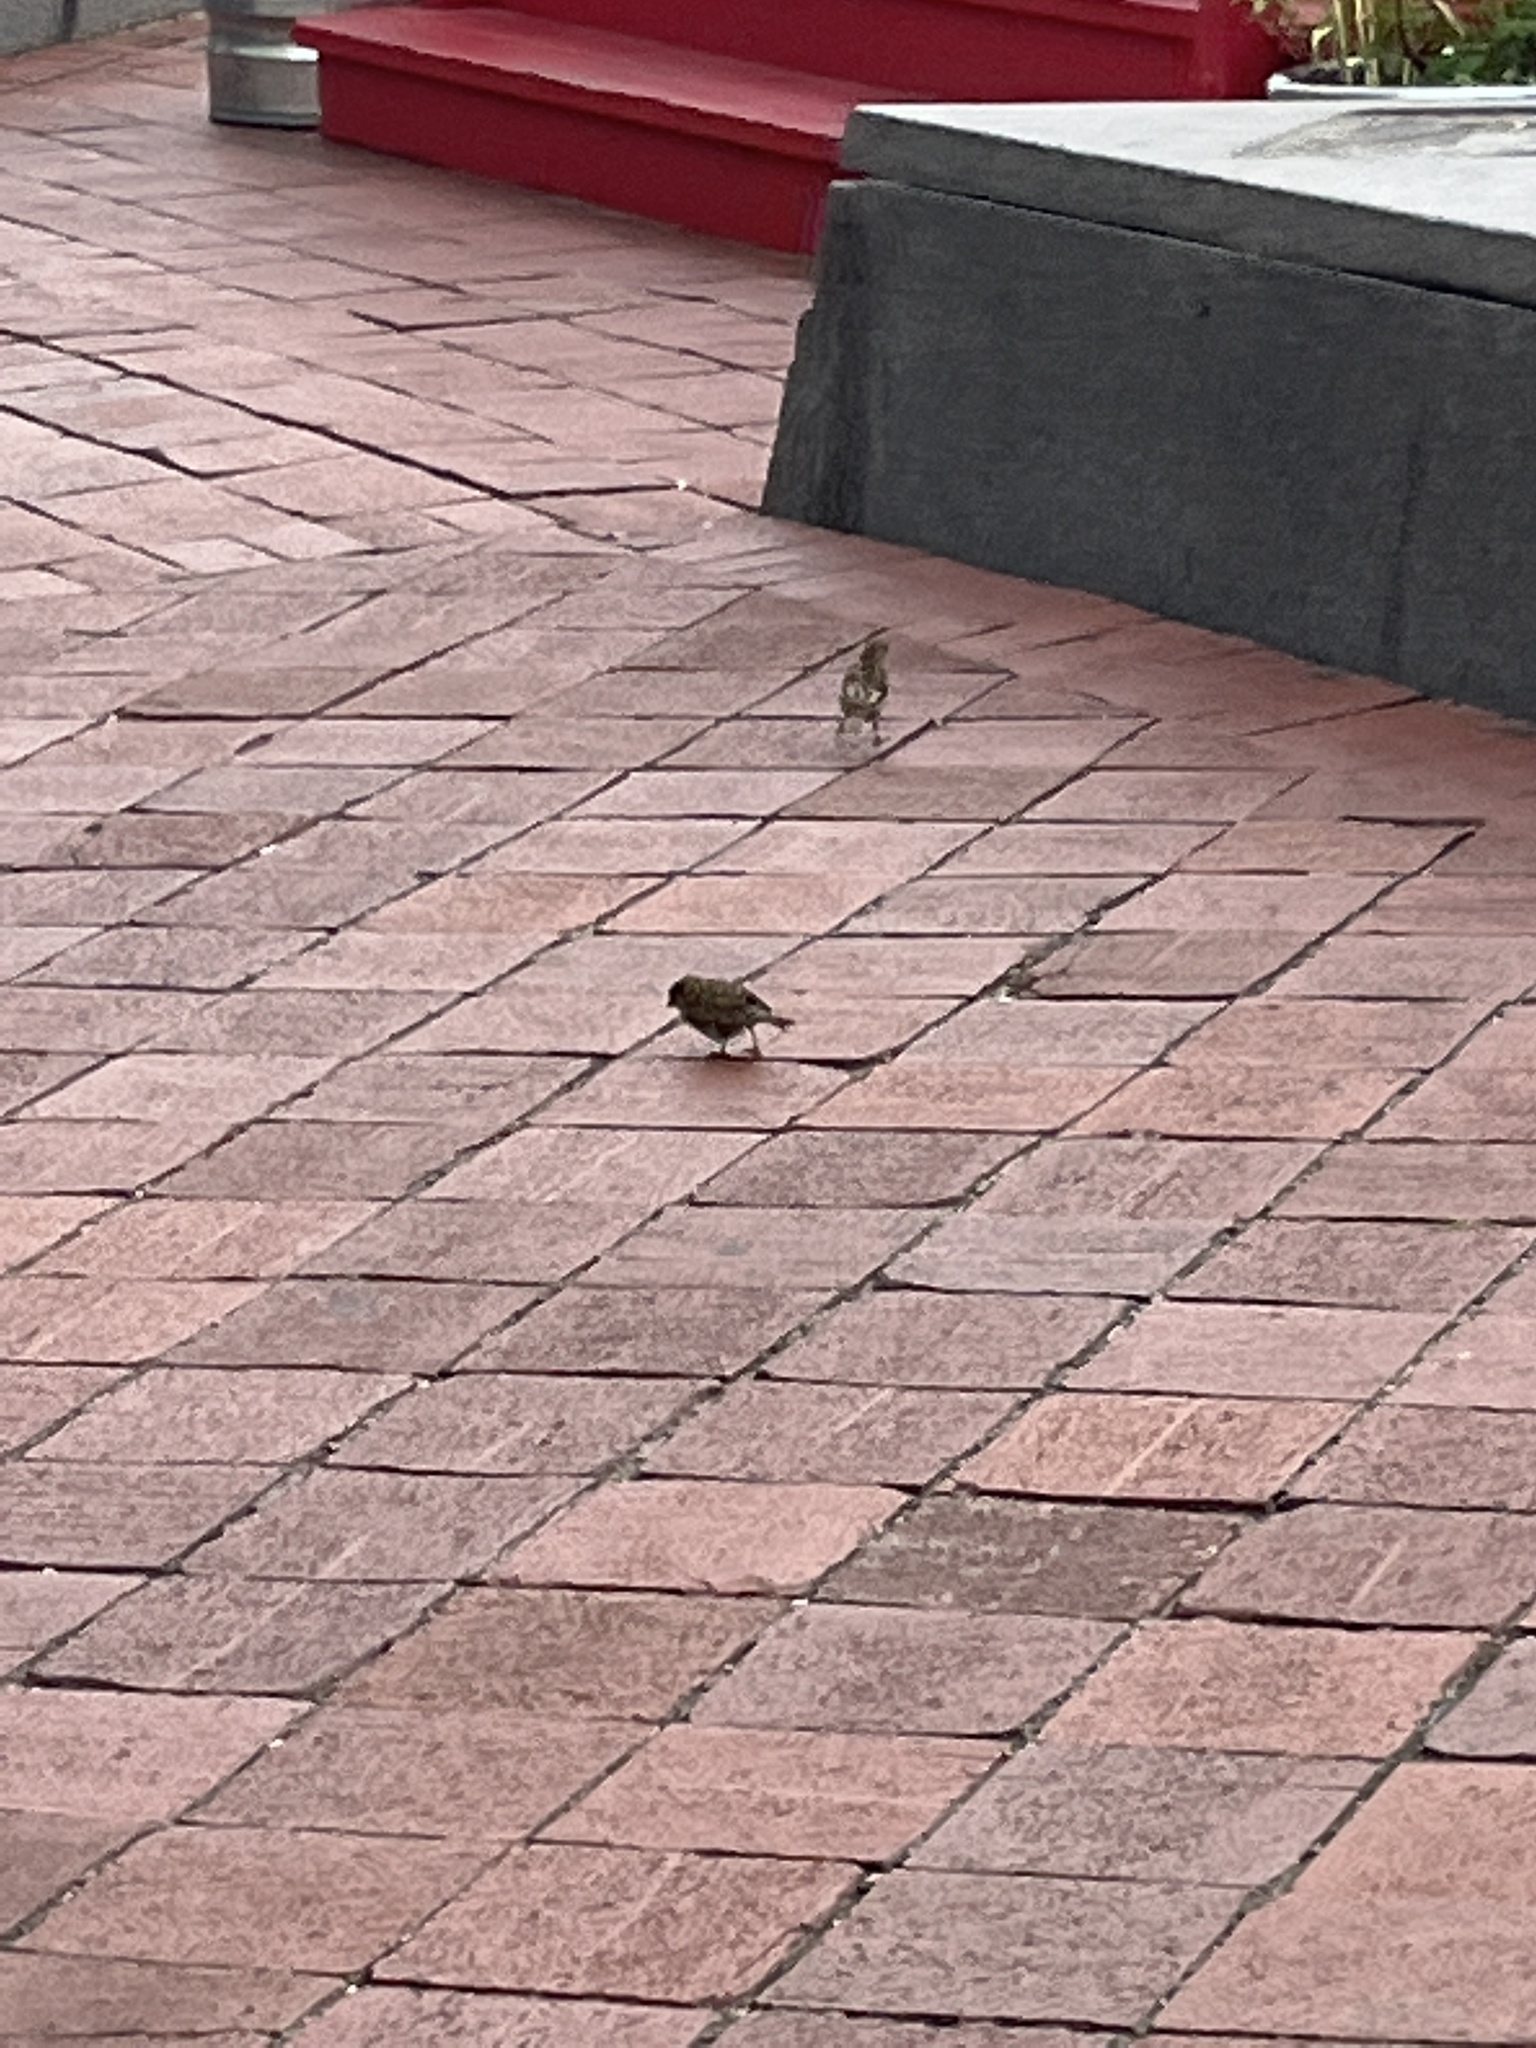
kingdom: Animalia
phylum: Chordata
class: Aves
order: Passeriformes
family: Passeridae
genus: Passer
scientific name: Passer domesticus
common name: House sparrow
